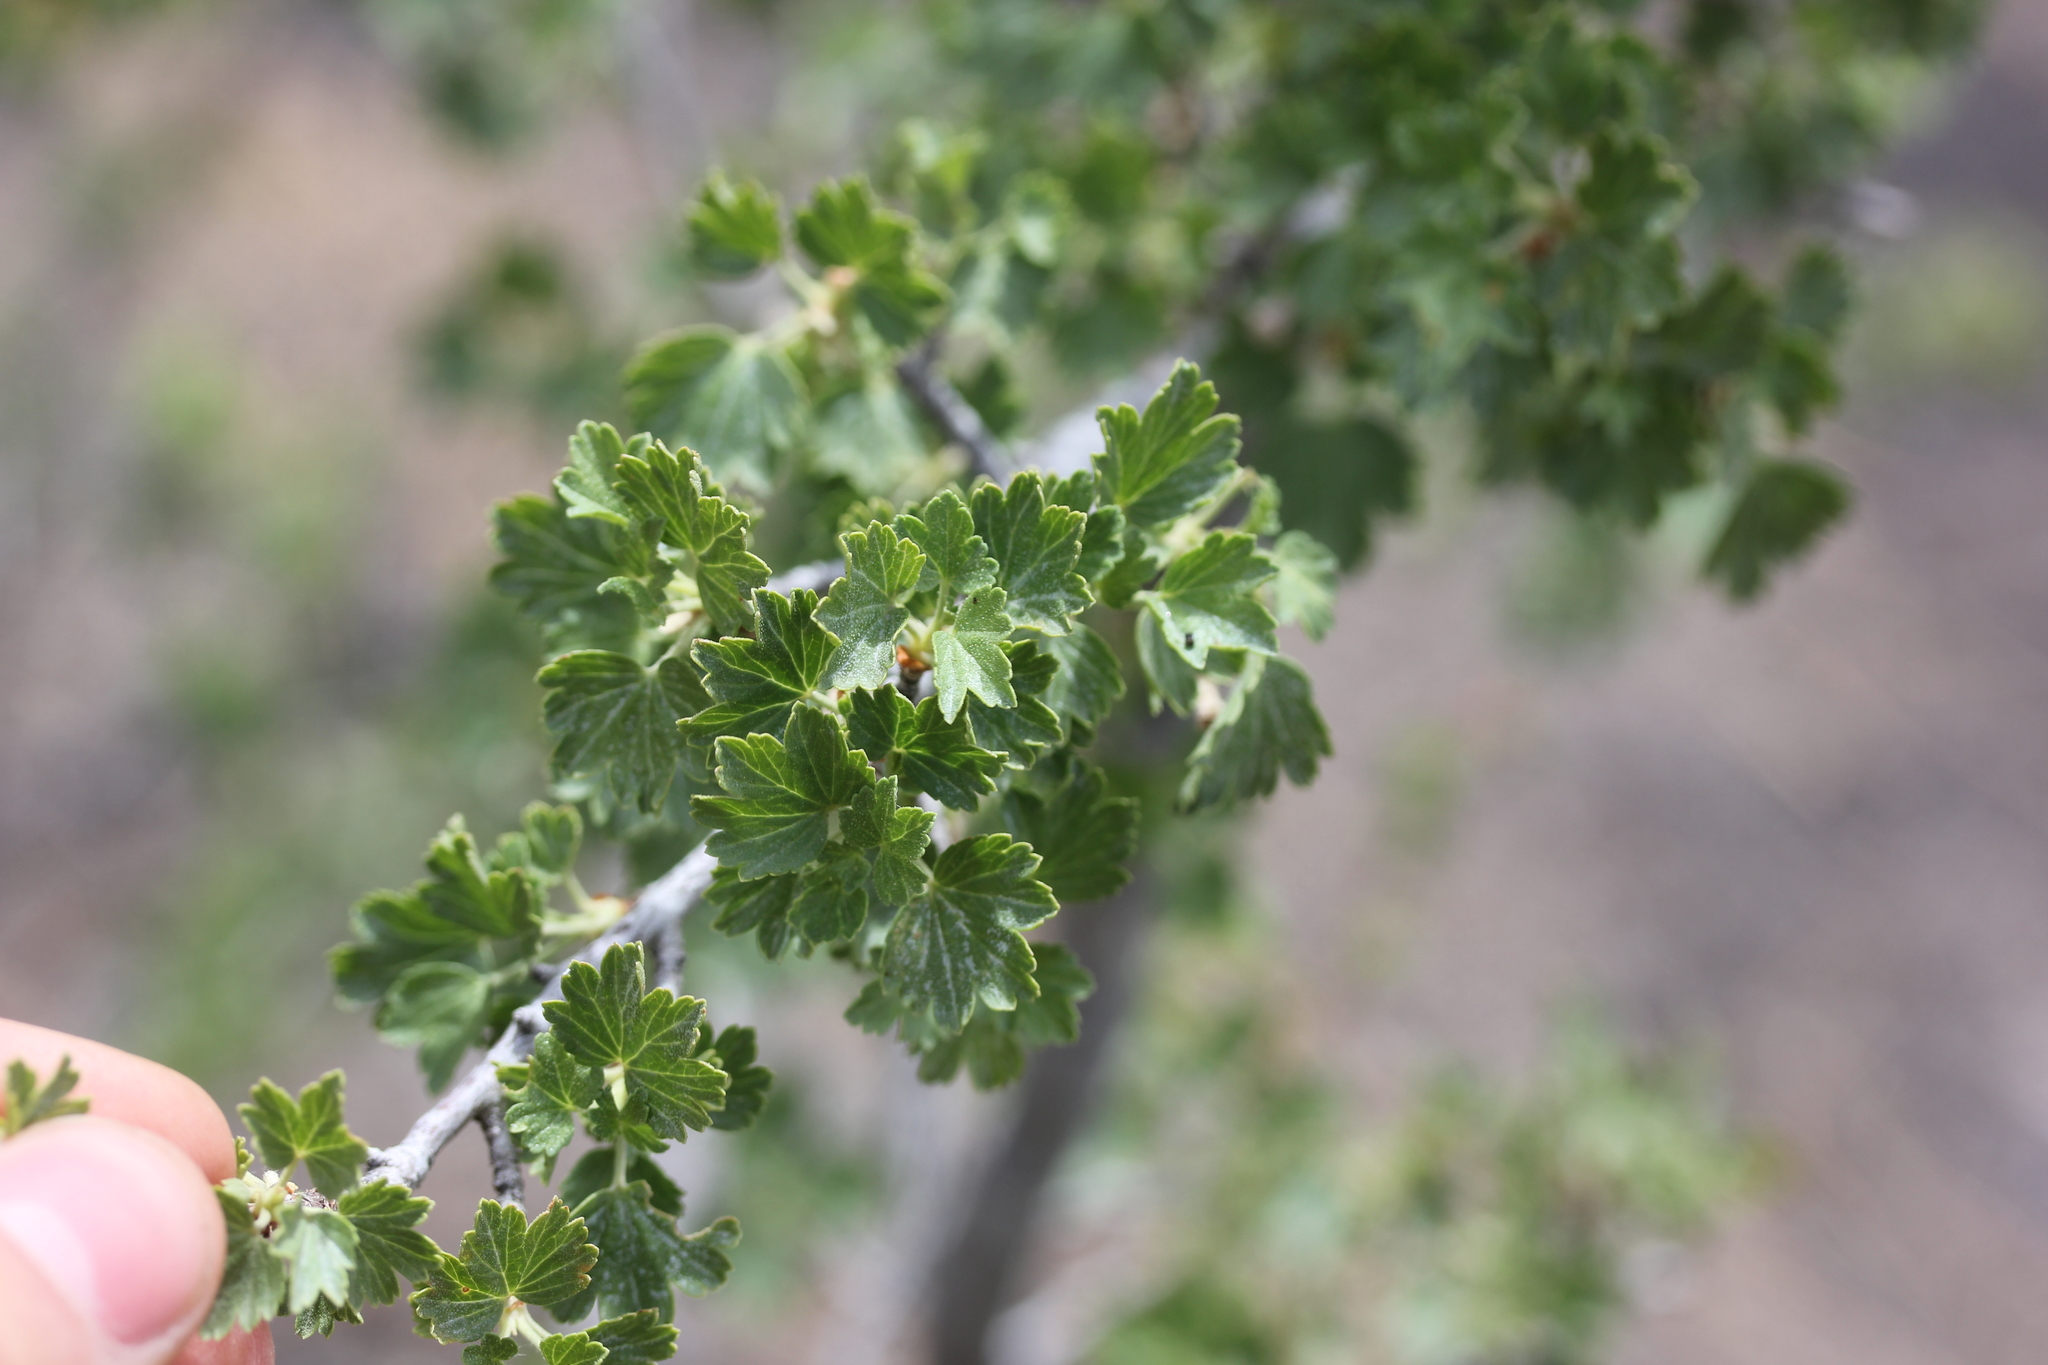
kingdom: Plantae
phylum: Tracheophyta
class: Magnoliopsida
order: Saxifragales
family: Grossulariaceae
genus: Ribes
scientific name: Ribes cereum
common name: Wax currant
